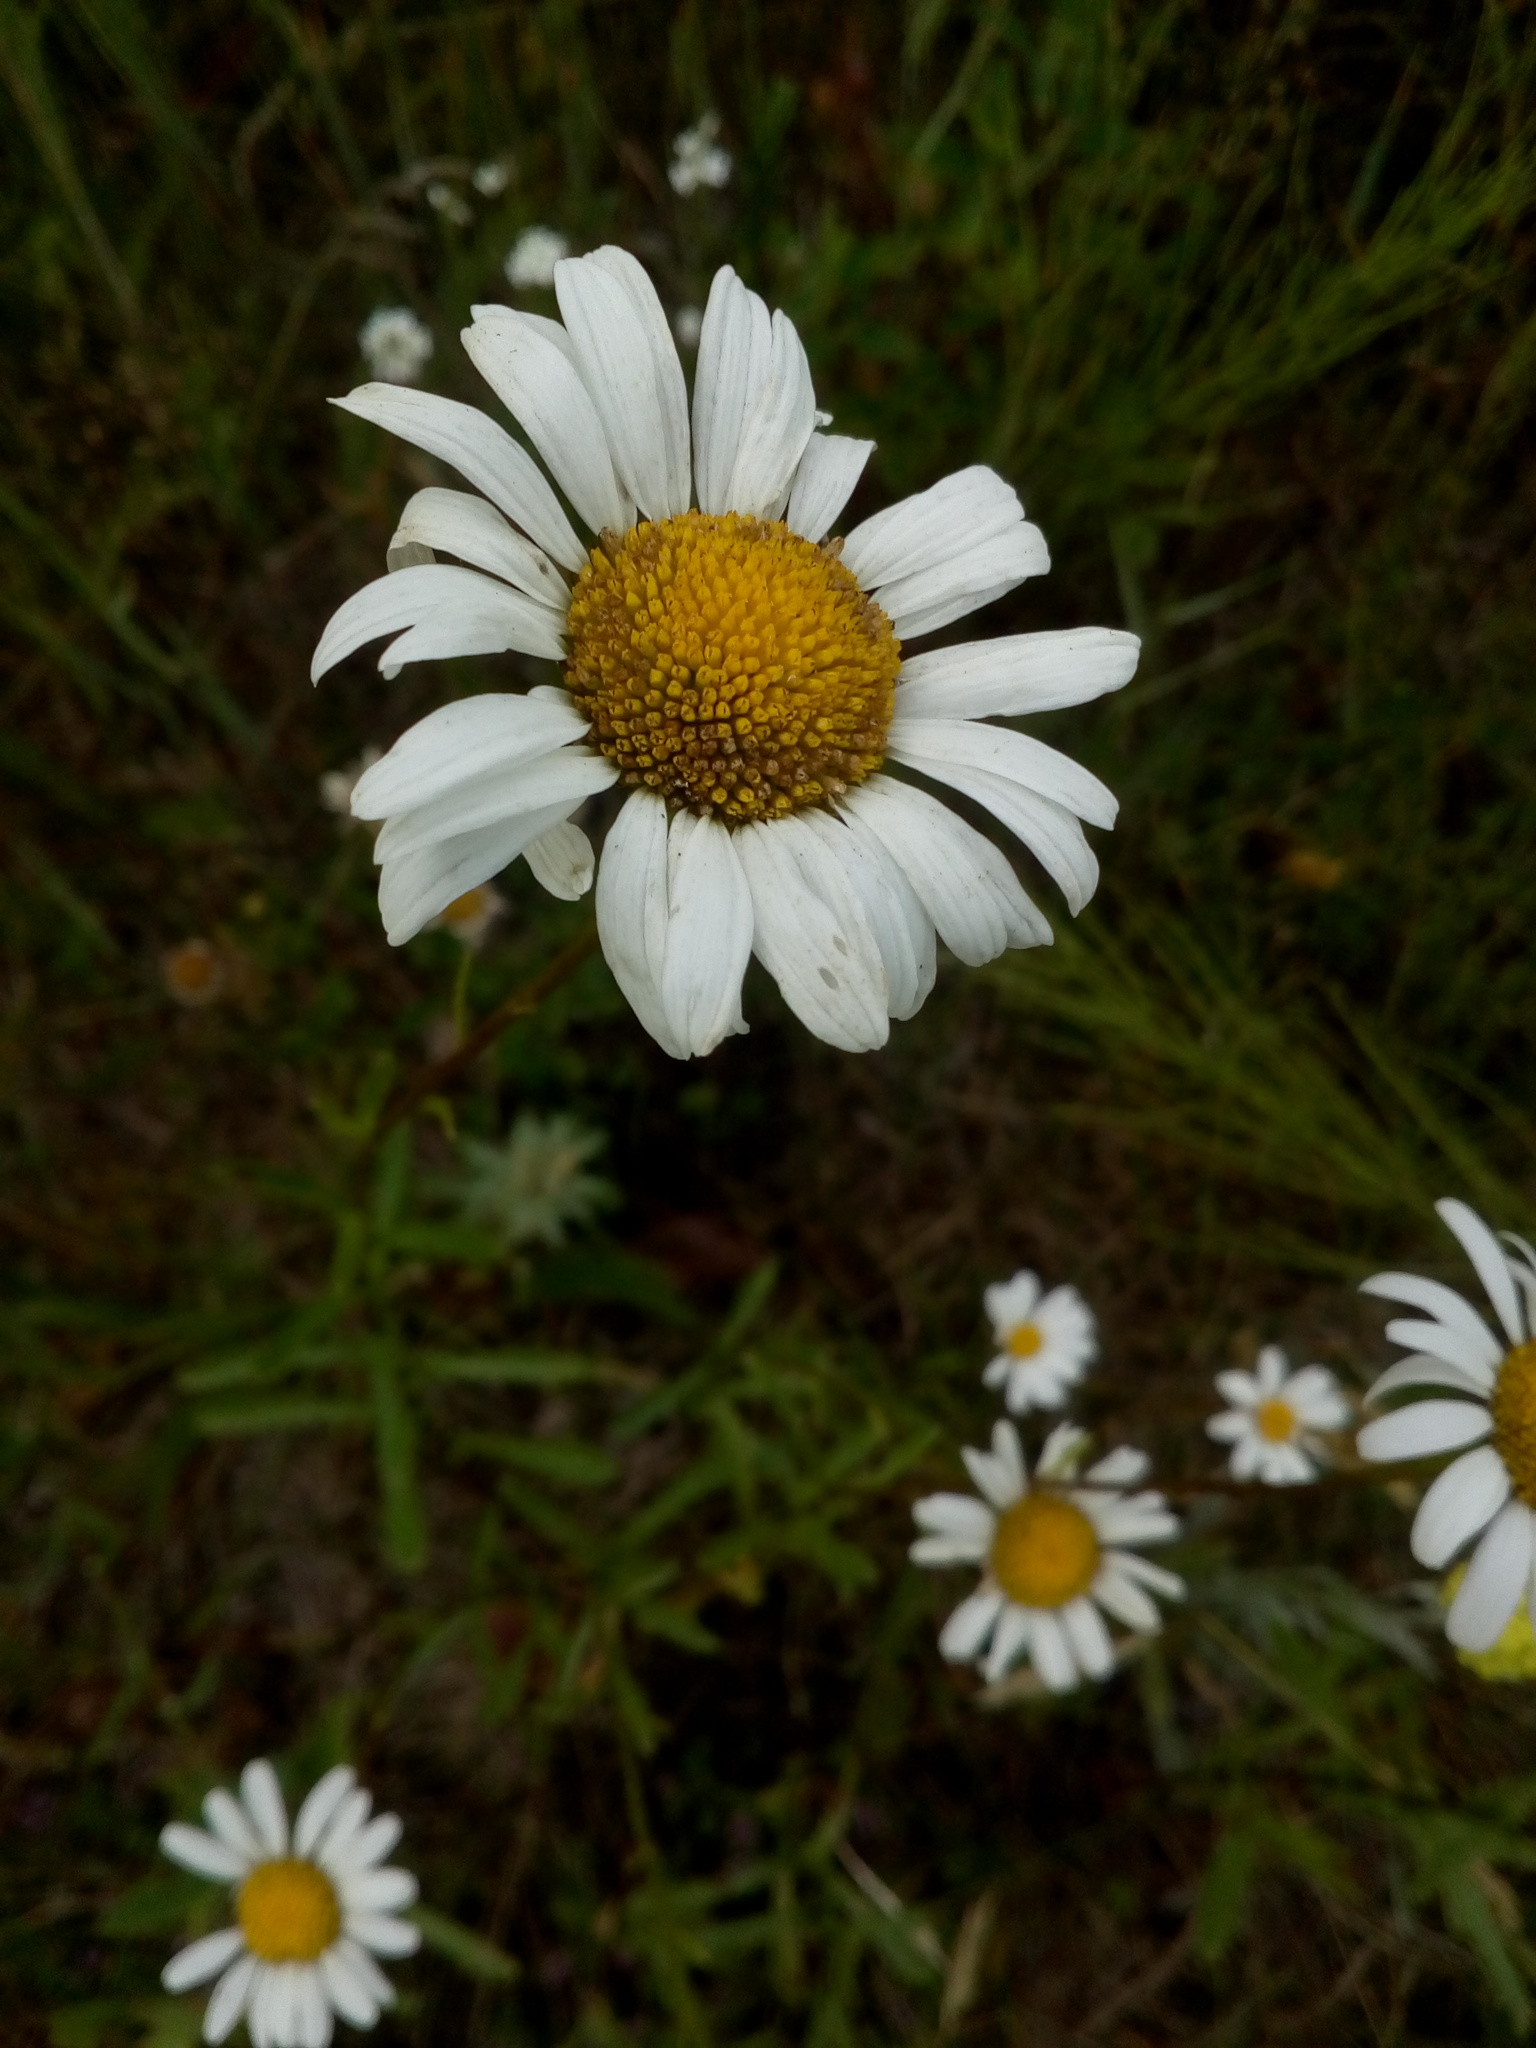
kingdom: Plantae
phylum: Tracheophyta
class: Magnoliopsida
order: Asterales
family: Asteraceae
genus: Leucanthemum
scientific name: Leucanthemum vulgare
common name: Oxeye daisy
